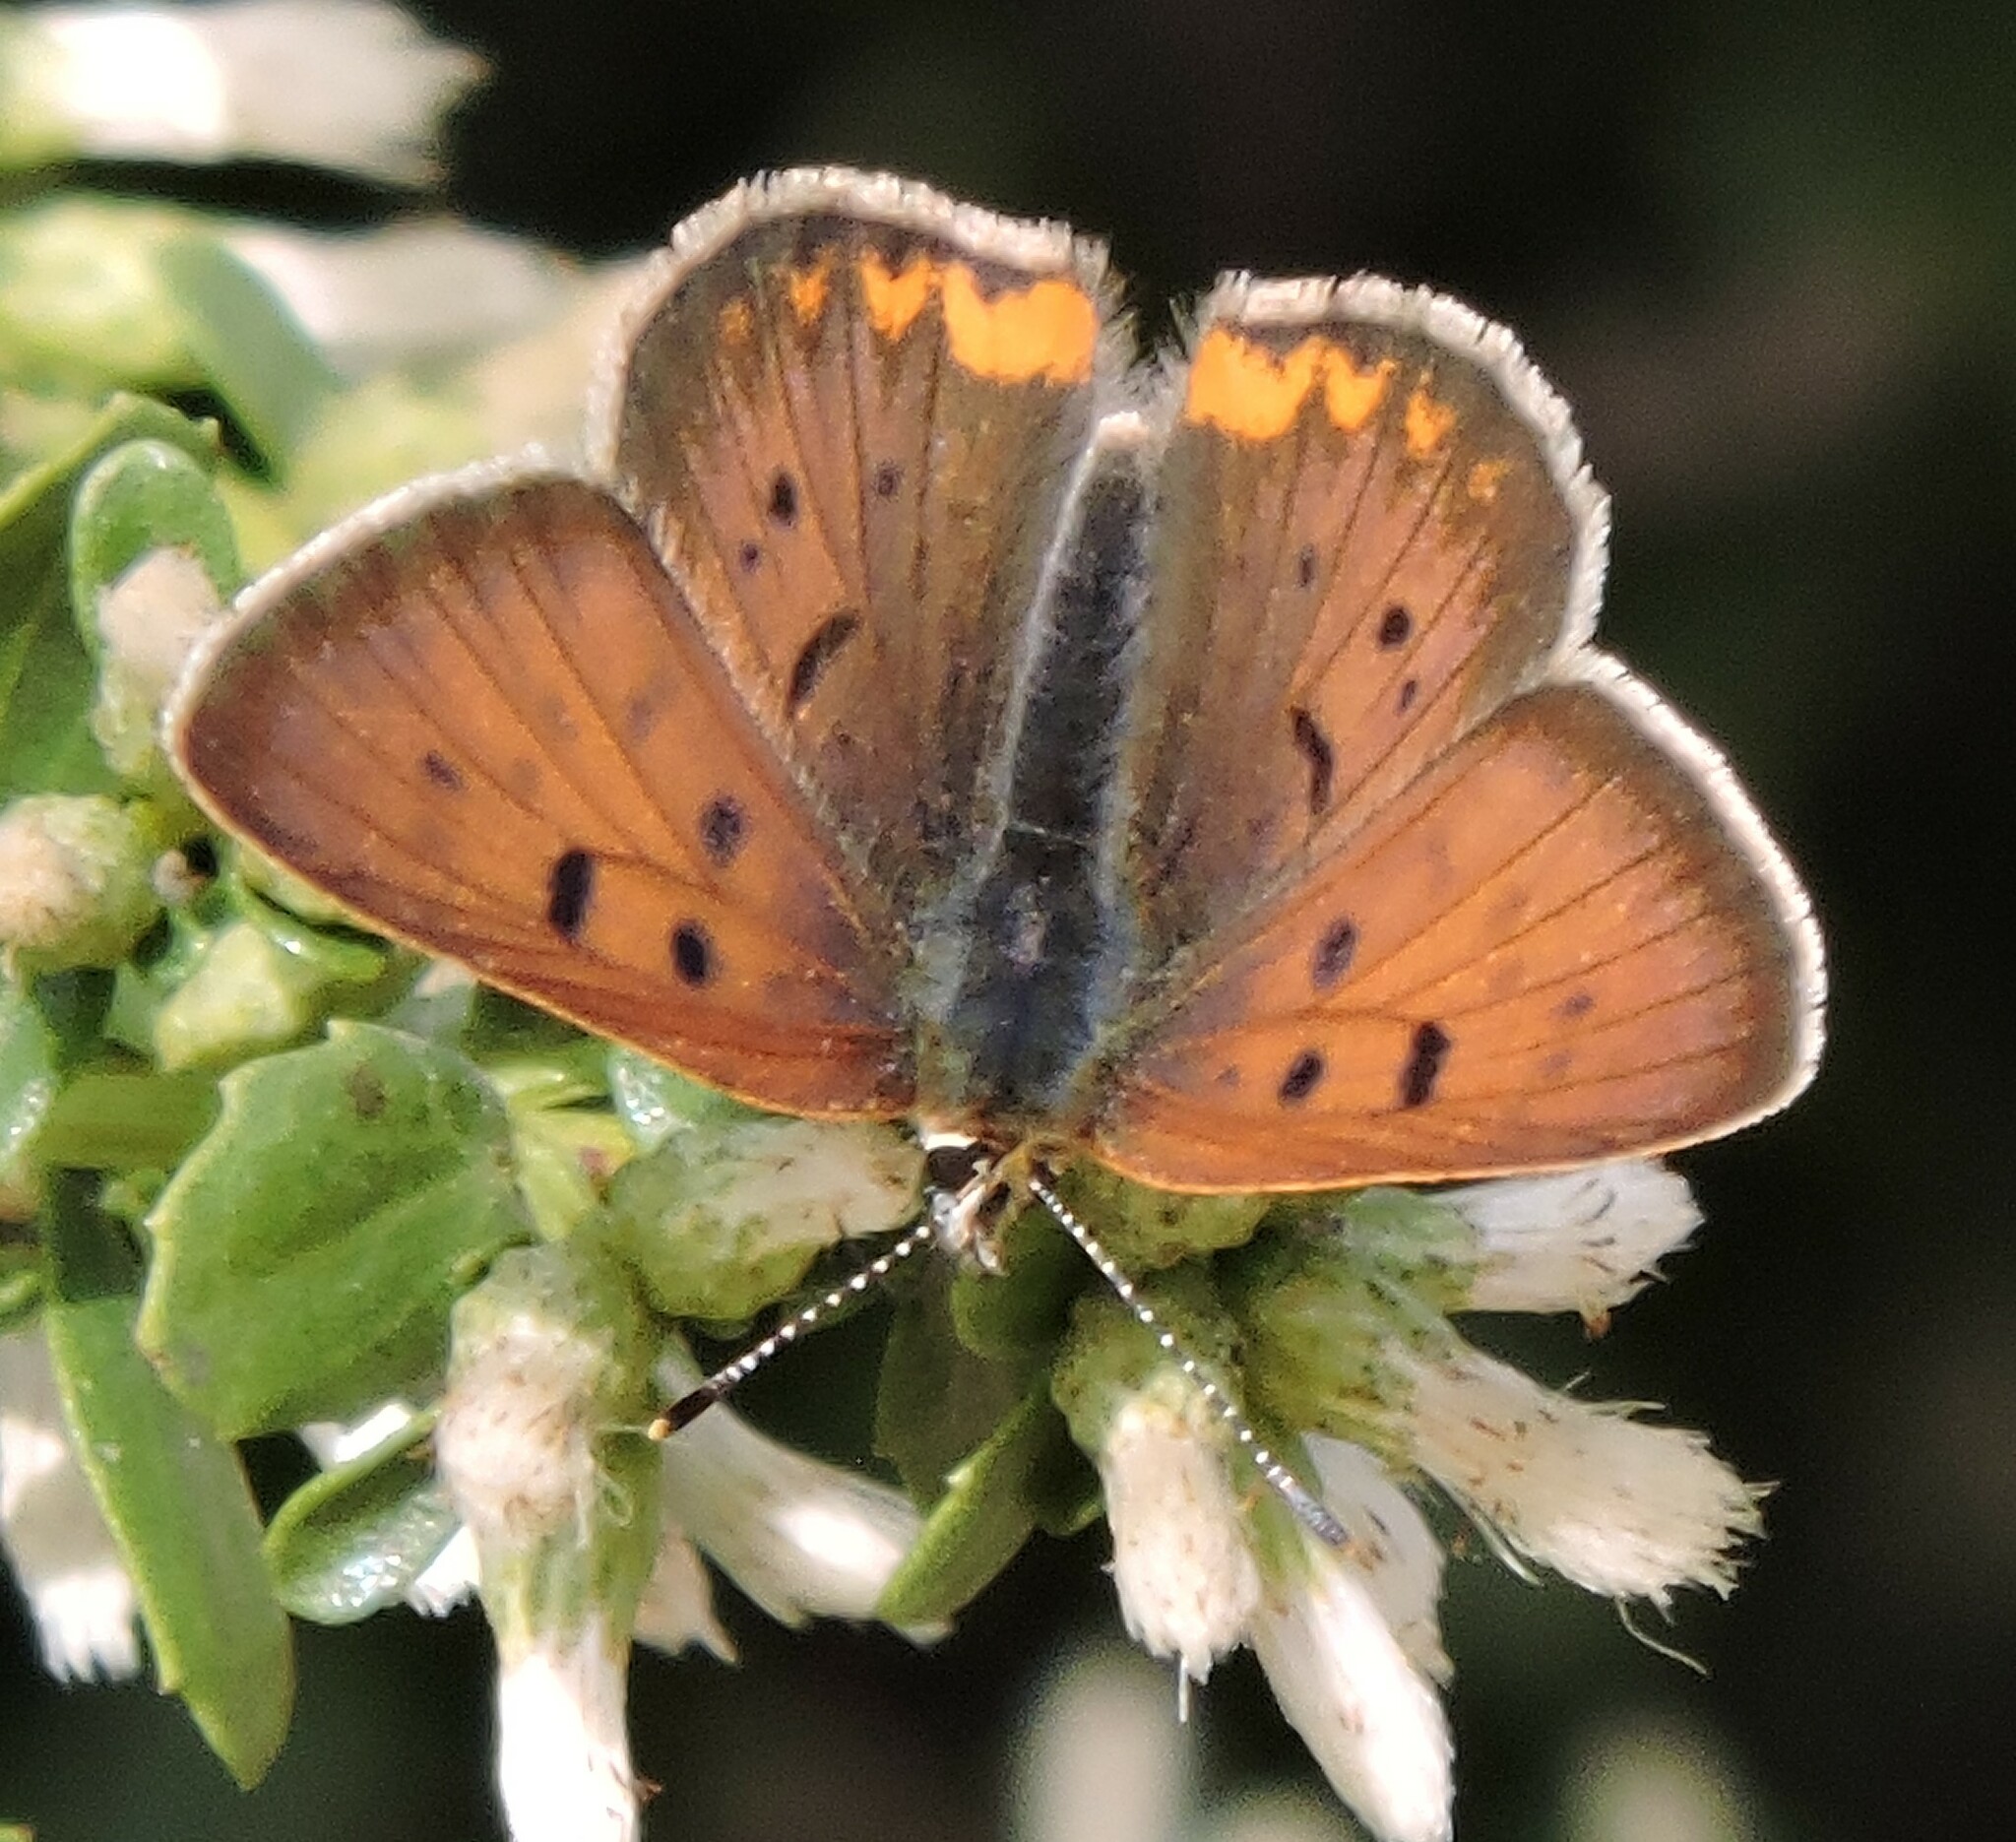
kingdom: Animalia
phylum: Arthropoda
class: Insecta
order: Lepidoptera
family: Lycaenidae
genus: Tharsalea
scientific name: Tharsalea helloides
